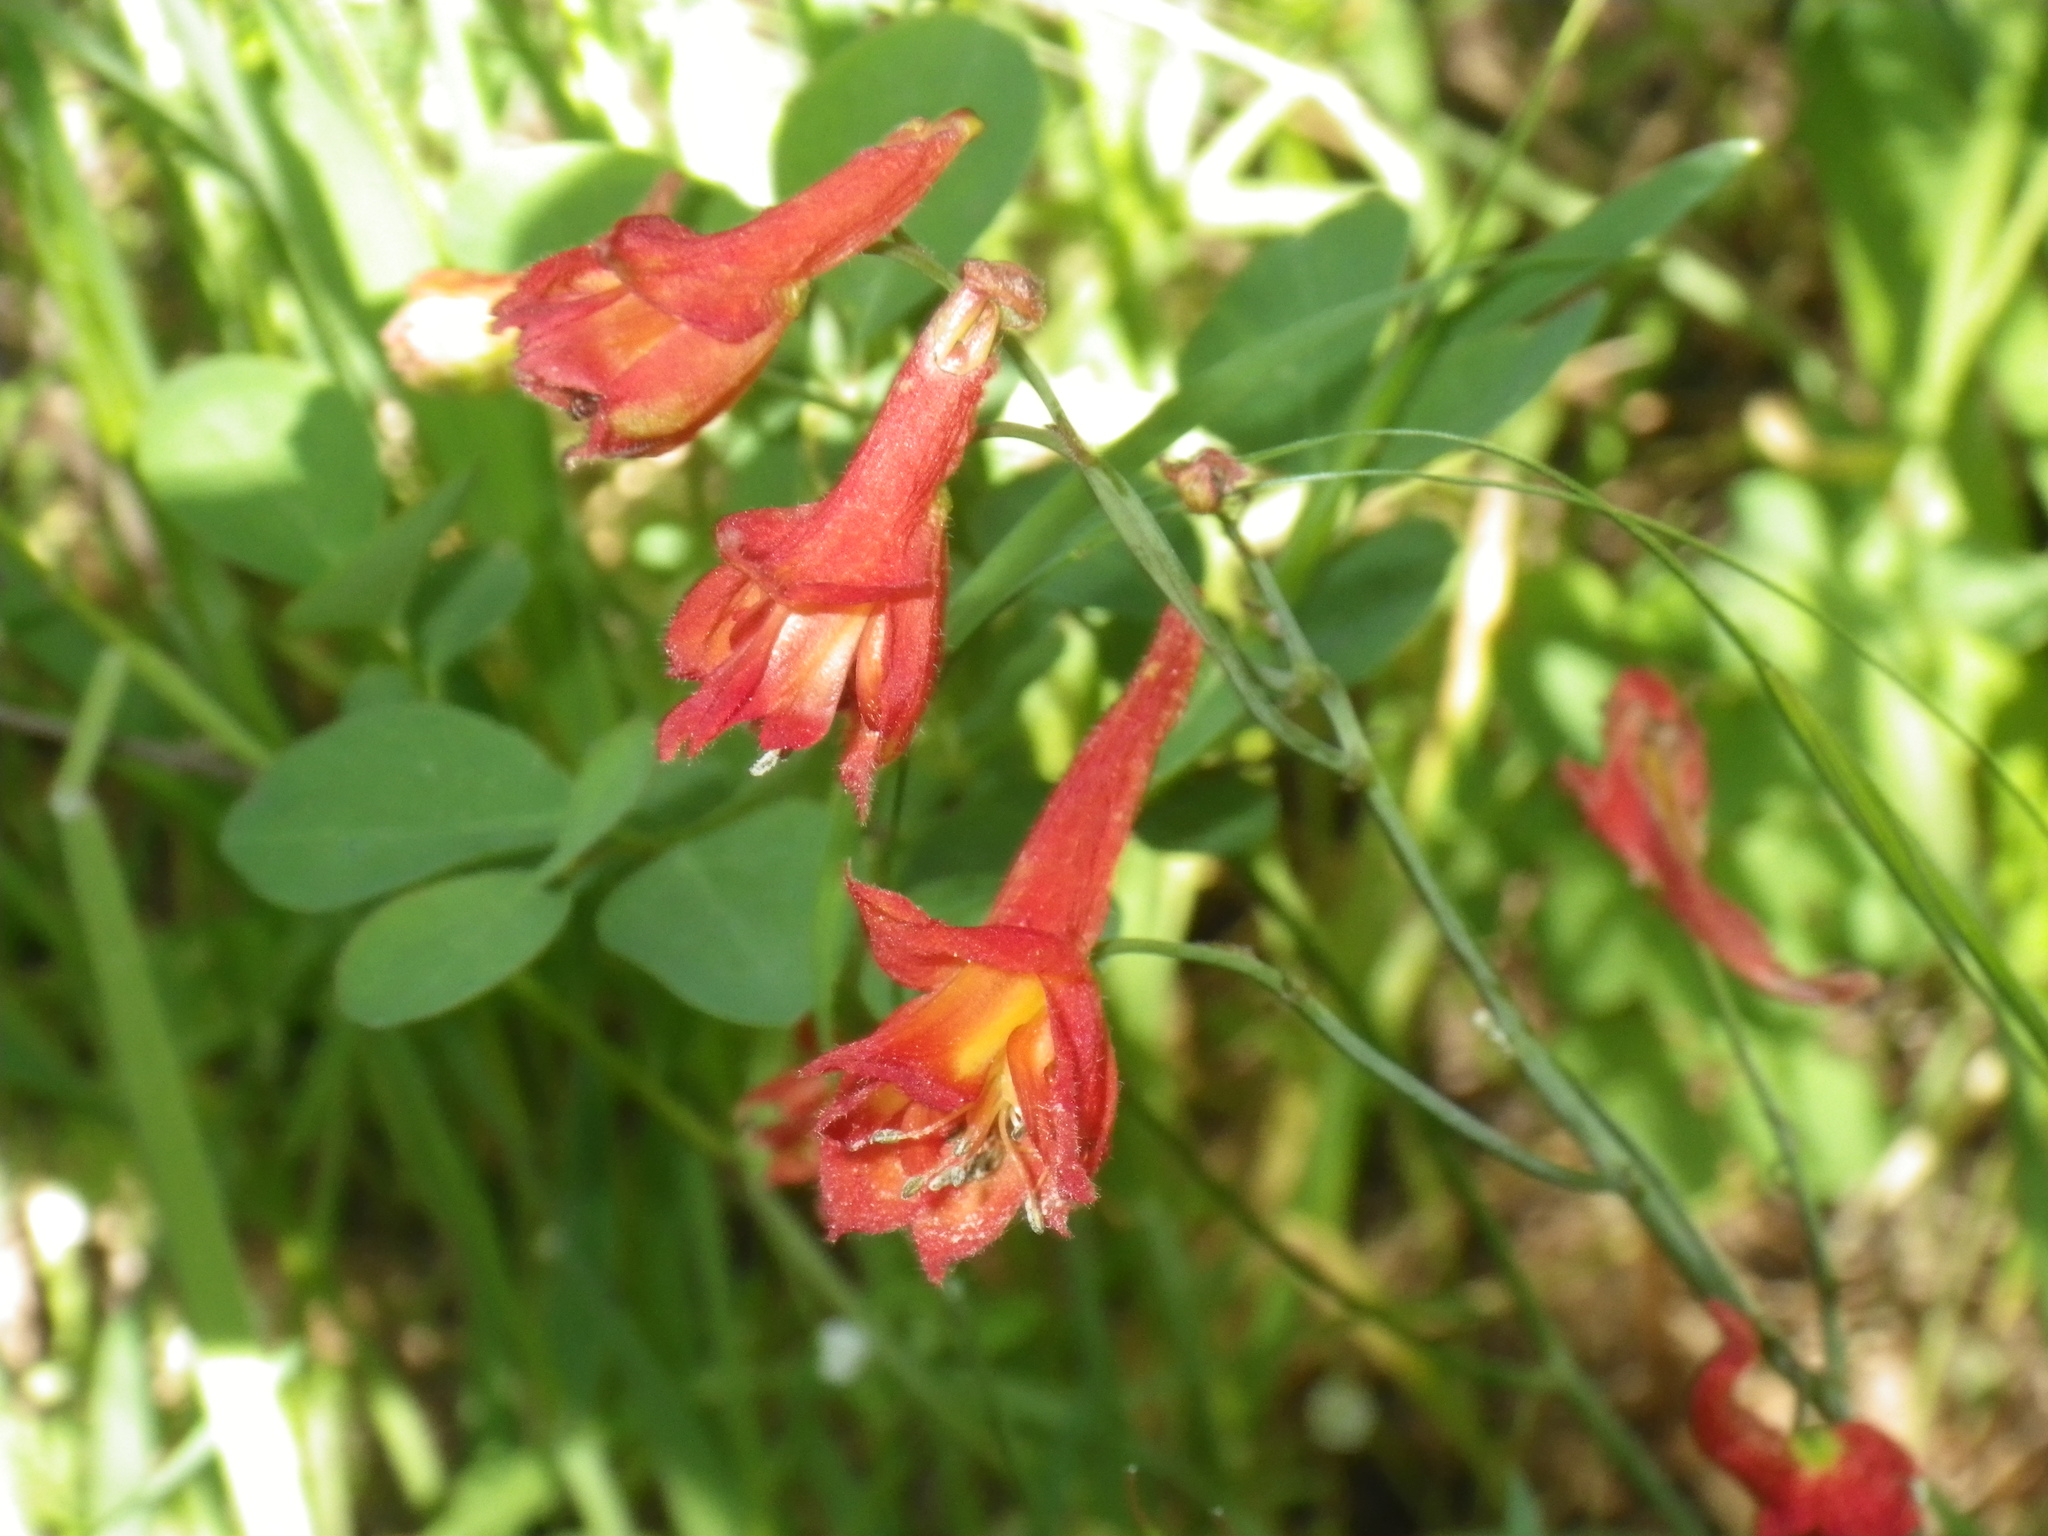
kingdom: Plantae
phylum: Tracheophyta
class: Magnoliopsida
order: Ranunculales
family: Ranunculaceae
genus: Delphinium
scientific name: Delphinium nudicaule
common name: Red larkspur
